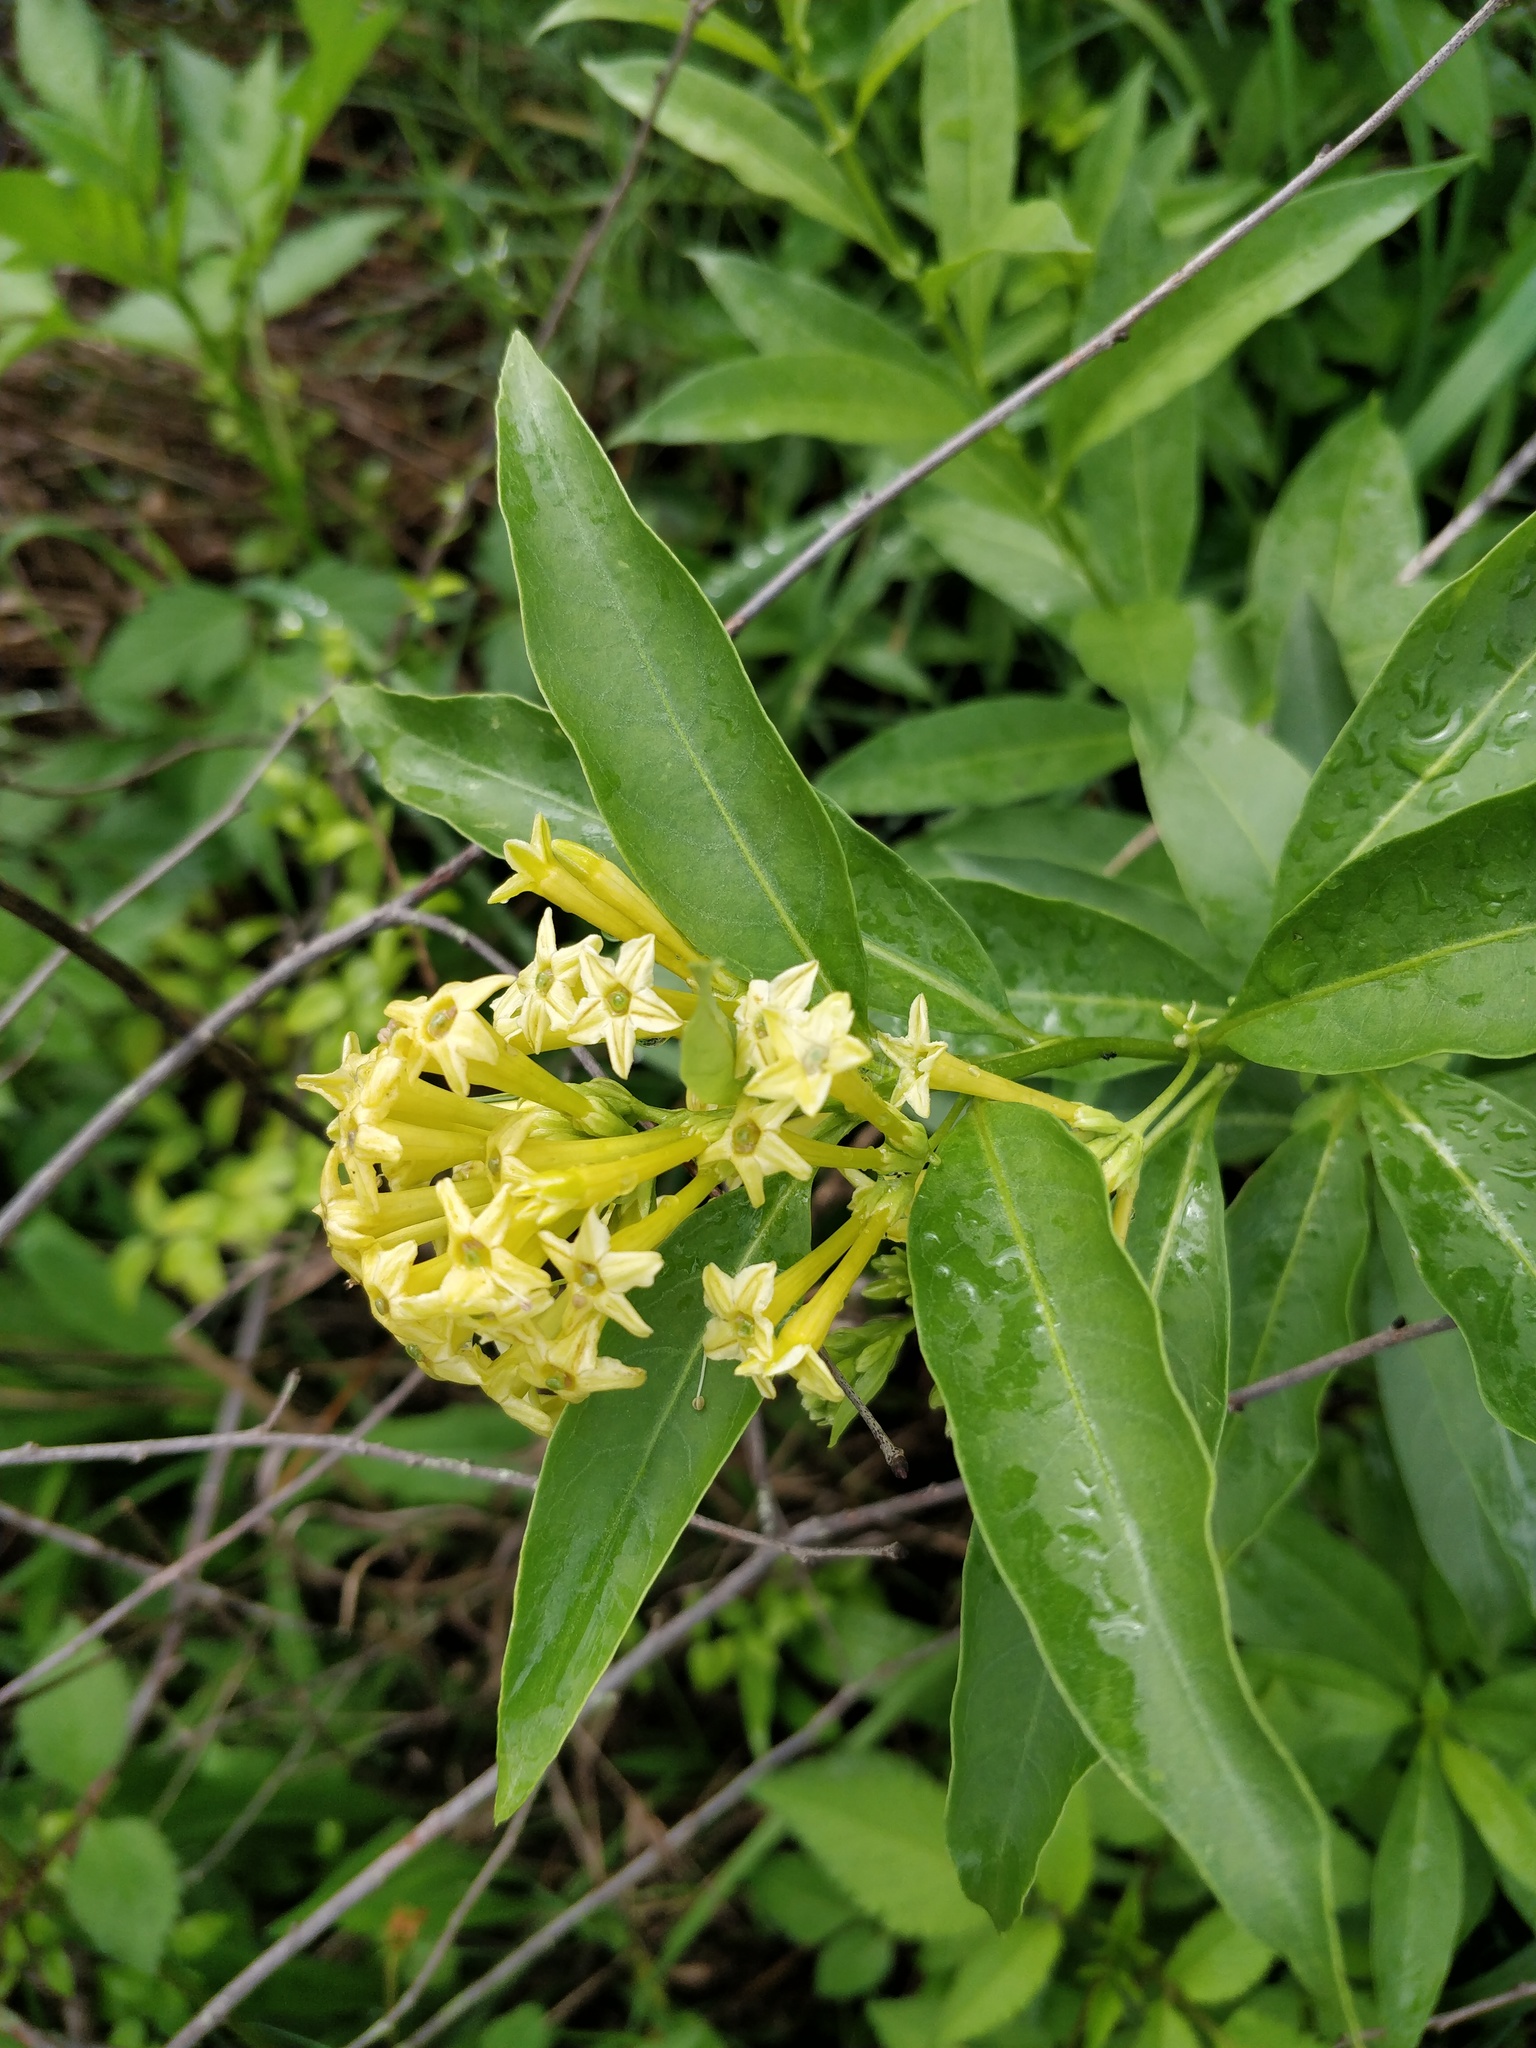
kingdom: Plantae
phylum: Tracheophyta
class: Magnoliopsida
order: Solanales
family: Solanaceae
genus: Cestrum
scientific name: Cestrum parqui
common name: Chilean cestrum
